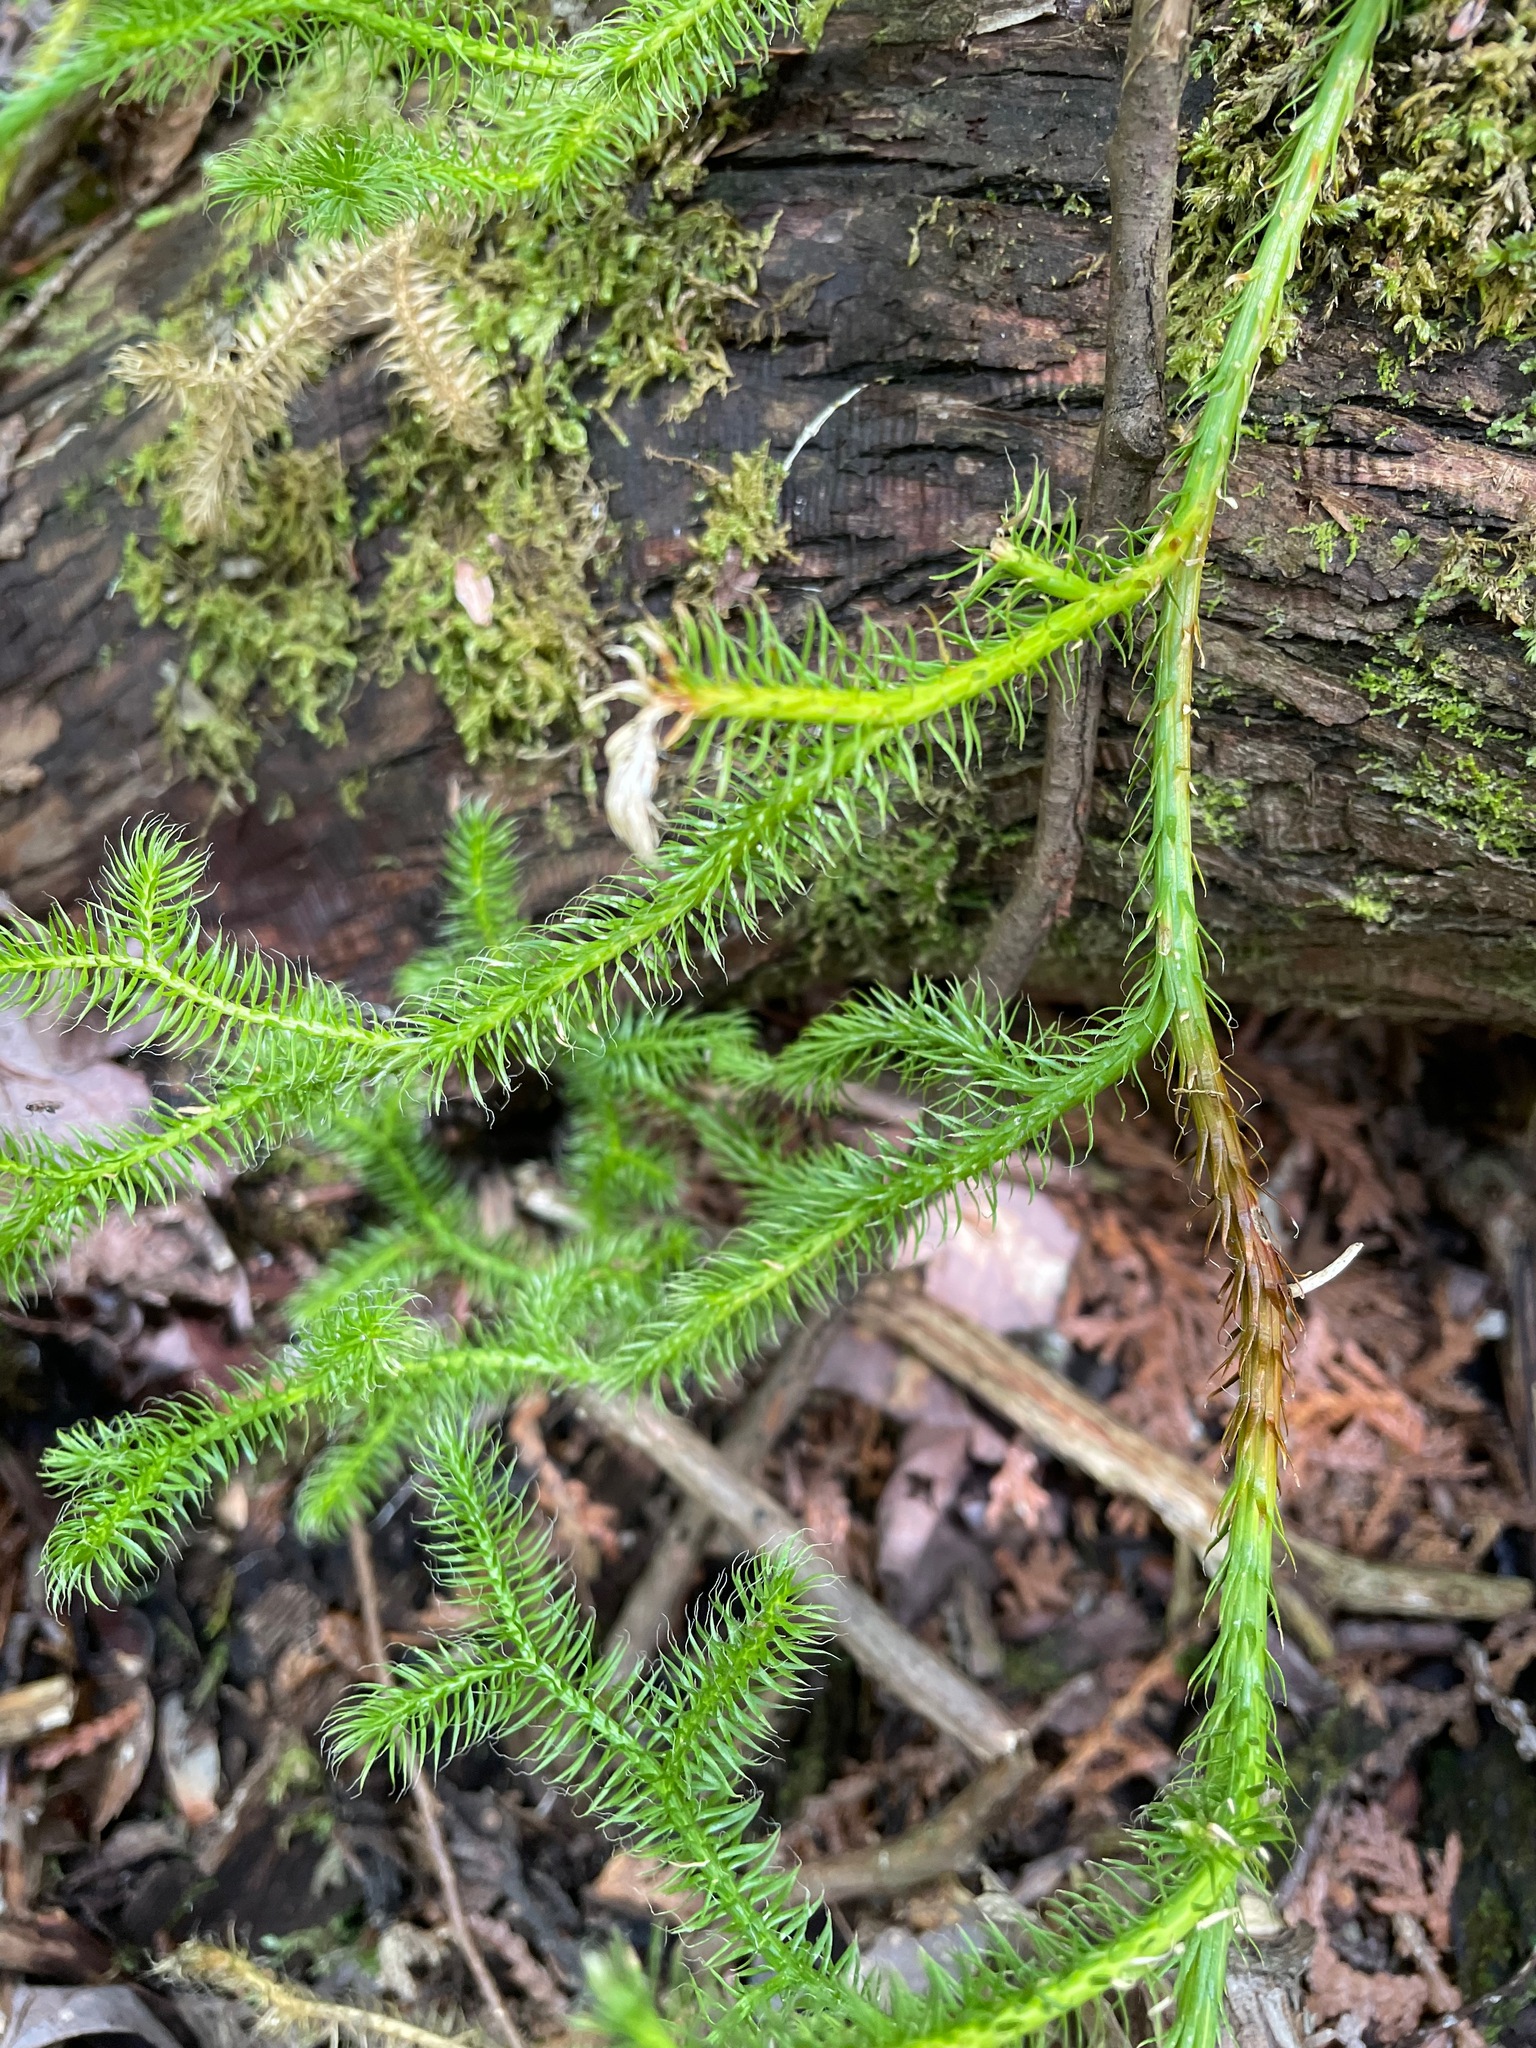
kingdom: Plantae
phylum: Tracheophyta
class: Lycopodiopsida
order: Lycopodiales
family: Lycopodiaceae
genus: Lycopodium
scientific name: Lycopodium clavatum
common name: Stag's-horn clubmoss
